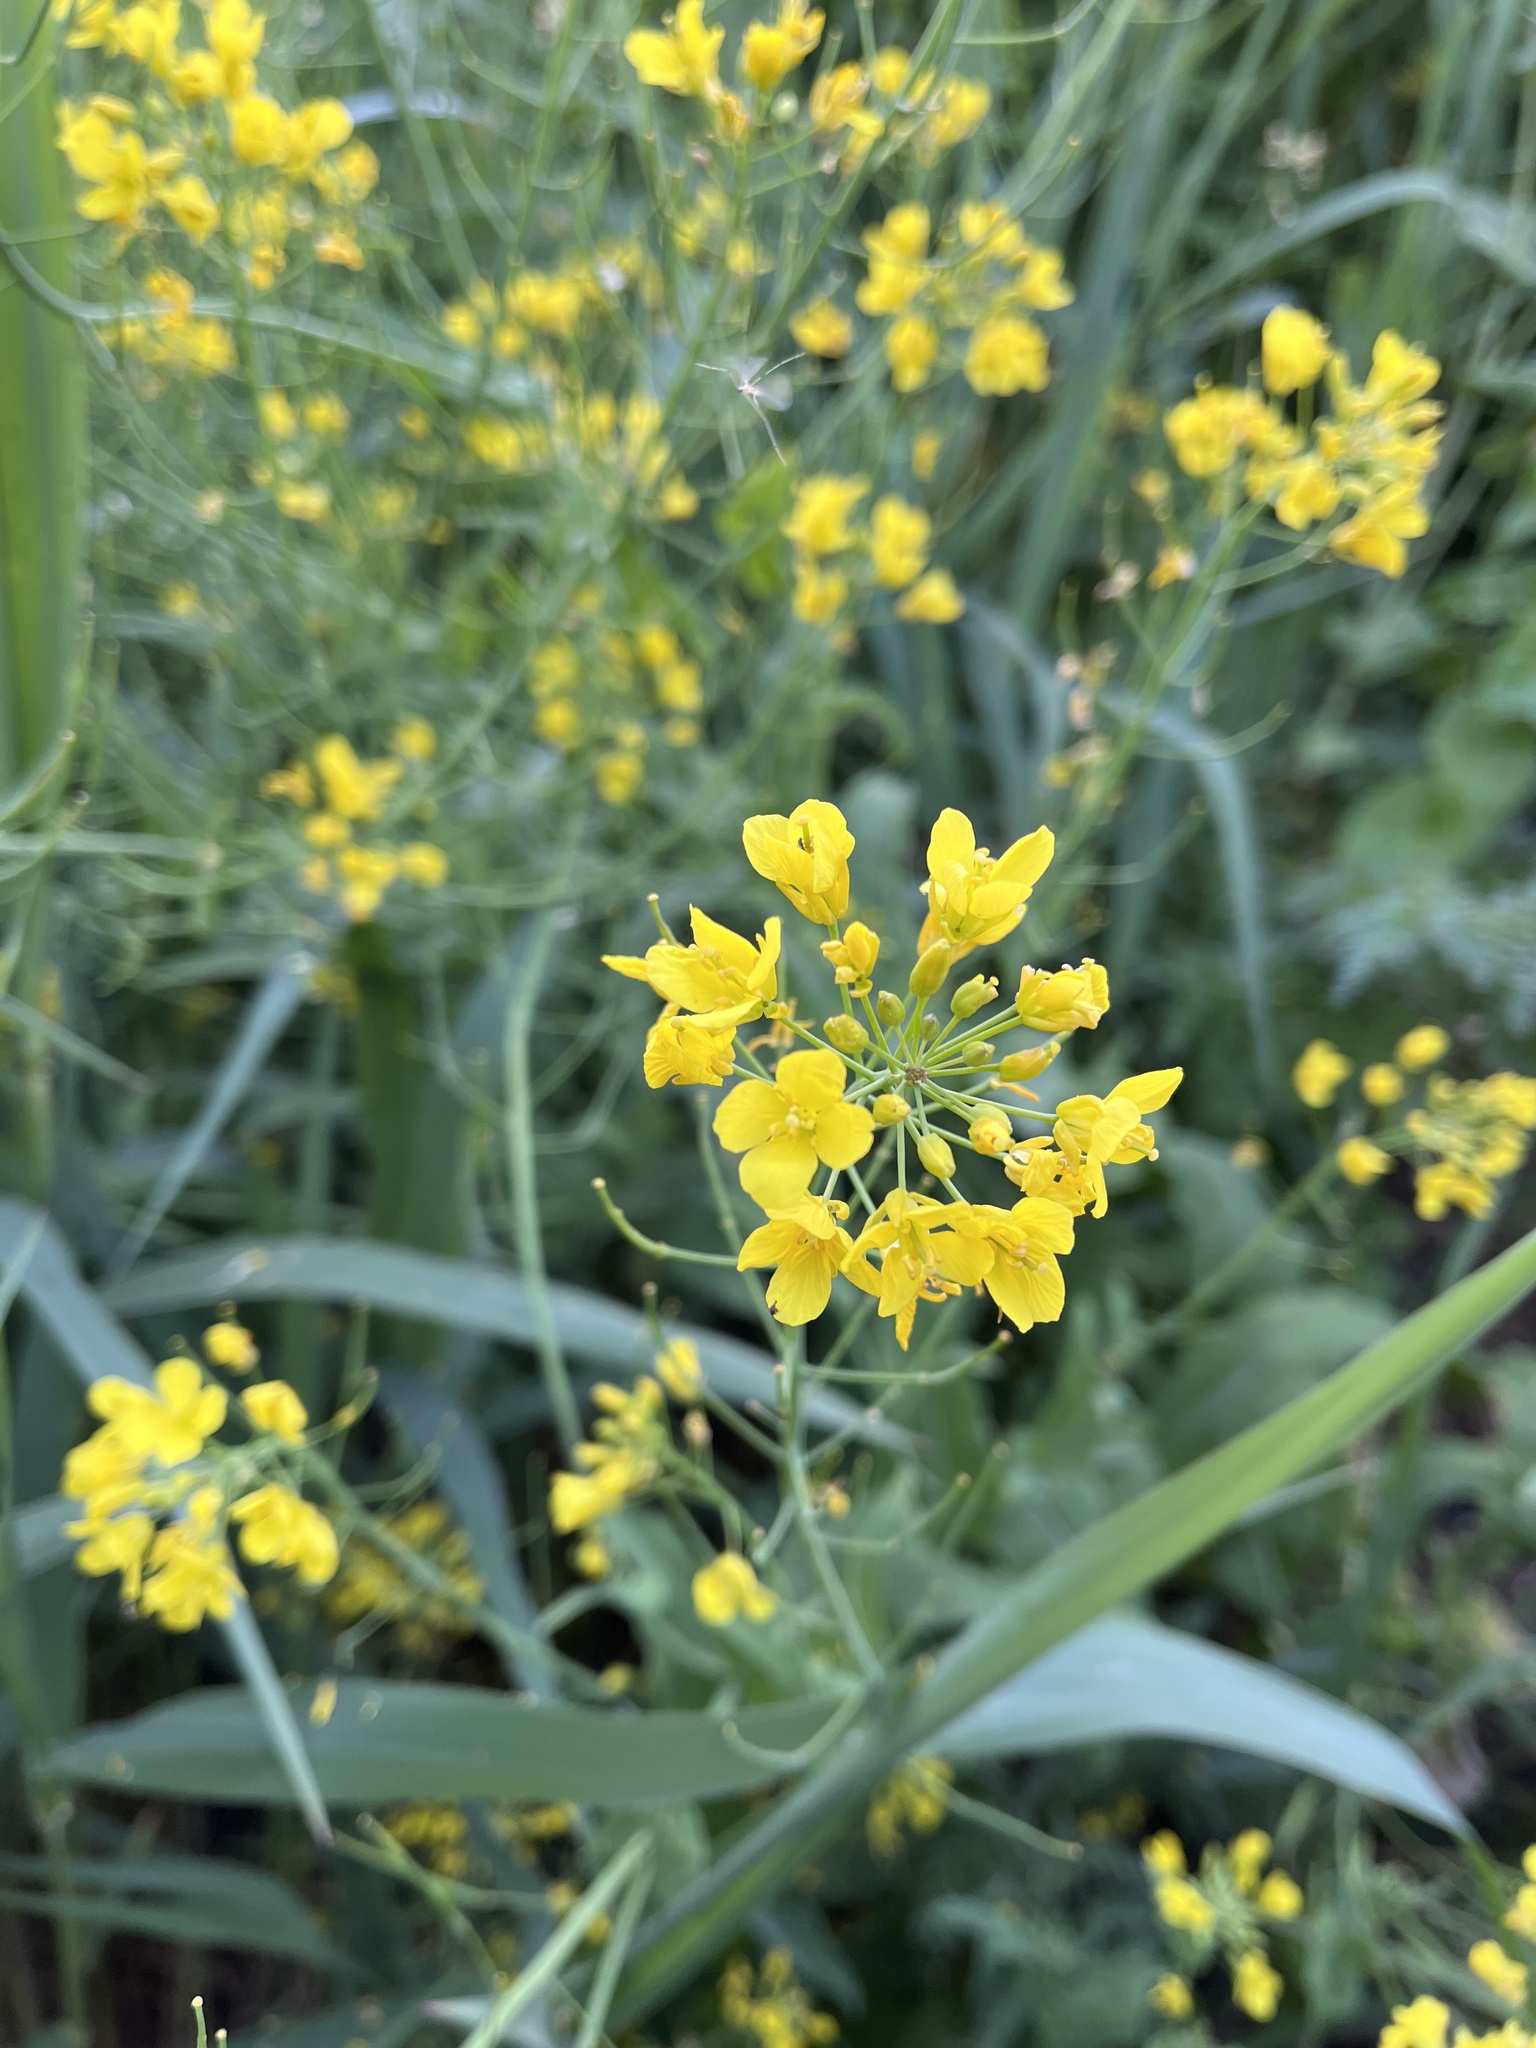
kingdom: Plantae
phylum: Tracheophyta
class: Magnoliopsida
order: Brassicales
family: Brassicaceae
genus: Brassica
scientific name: Brassica rapa
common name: Field mustard
